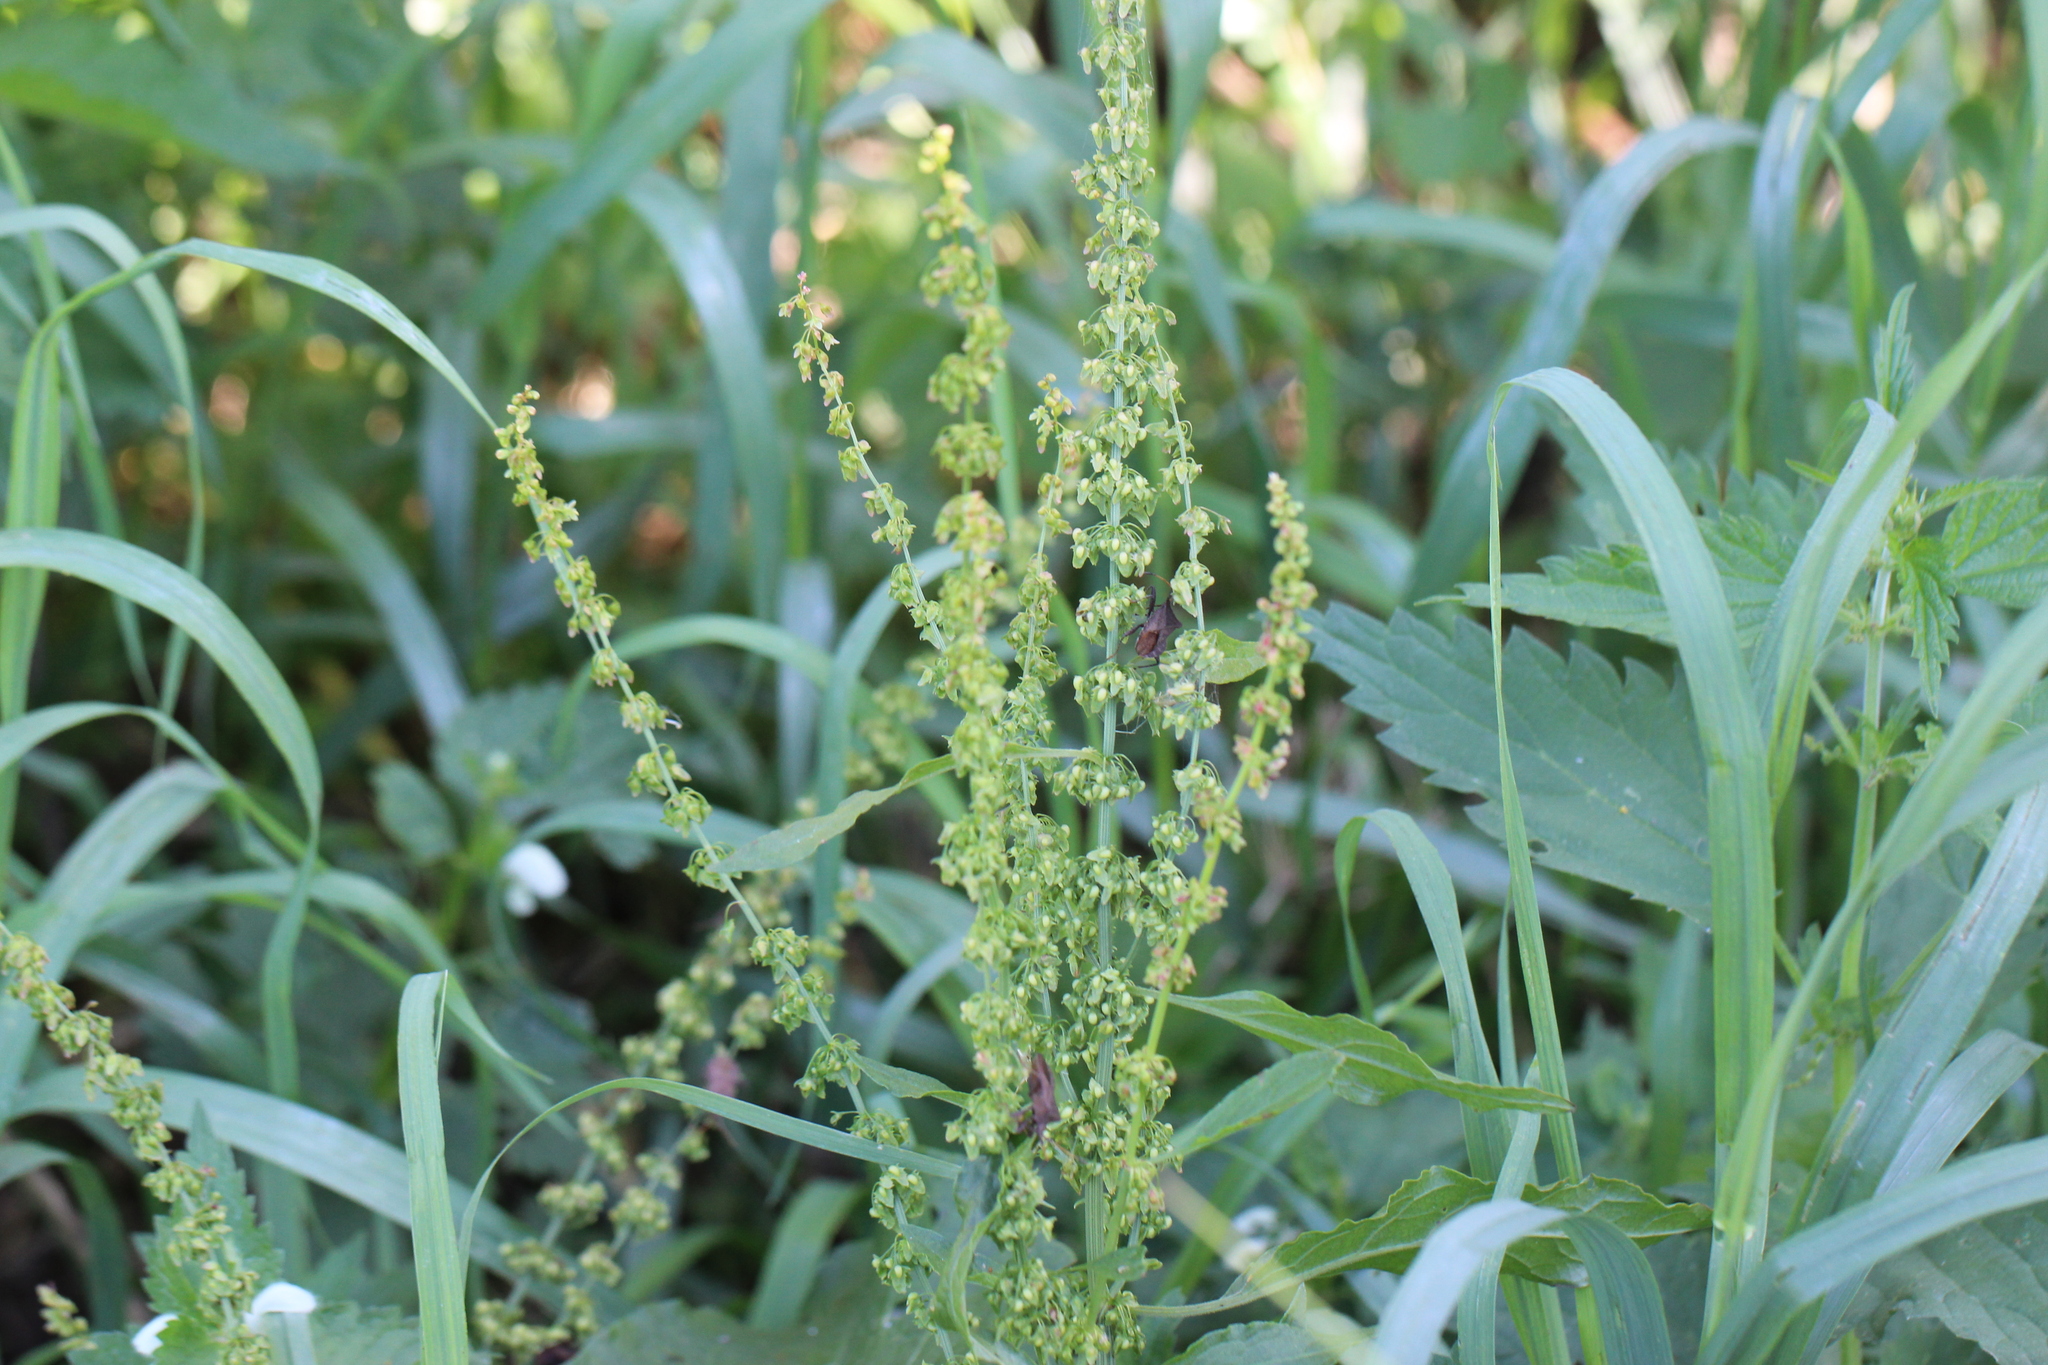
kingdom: Plantae
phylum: Tracheophyta
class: Magnoliopsida
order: Caryophyllales
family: Polygonaceae
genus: Rumex
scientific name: Rumex obtusifolius
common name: Bitter dock
